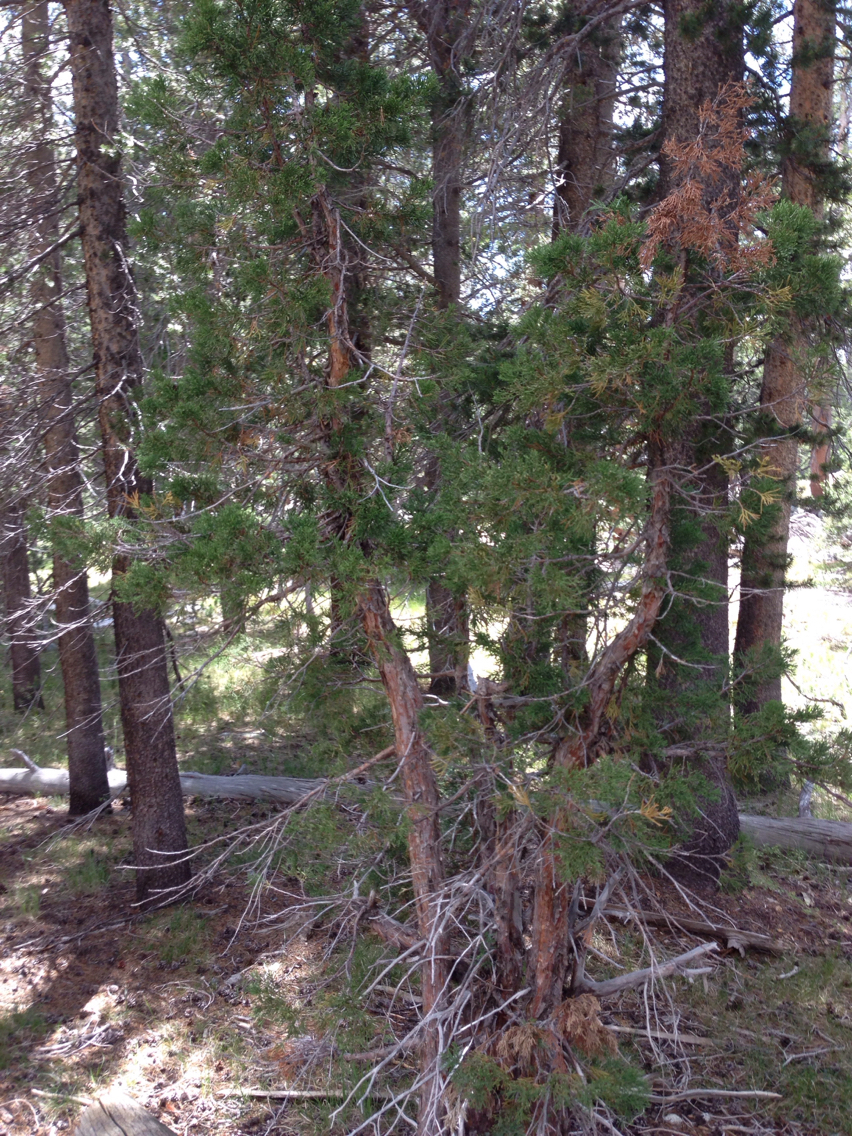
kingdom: Plantae
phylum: Tracheophyta
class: Pinopsida
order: Pinales
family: Cupressaceae
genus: Juniperus
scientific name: Juniperus occidentalis
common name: Western juniper
